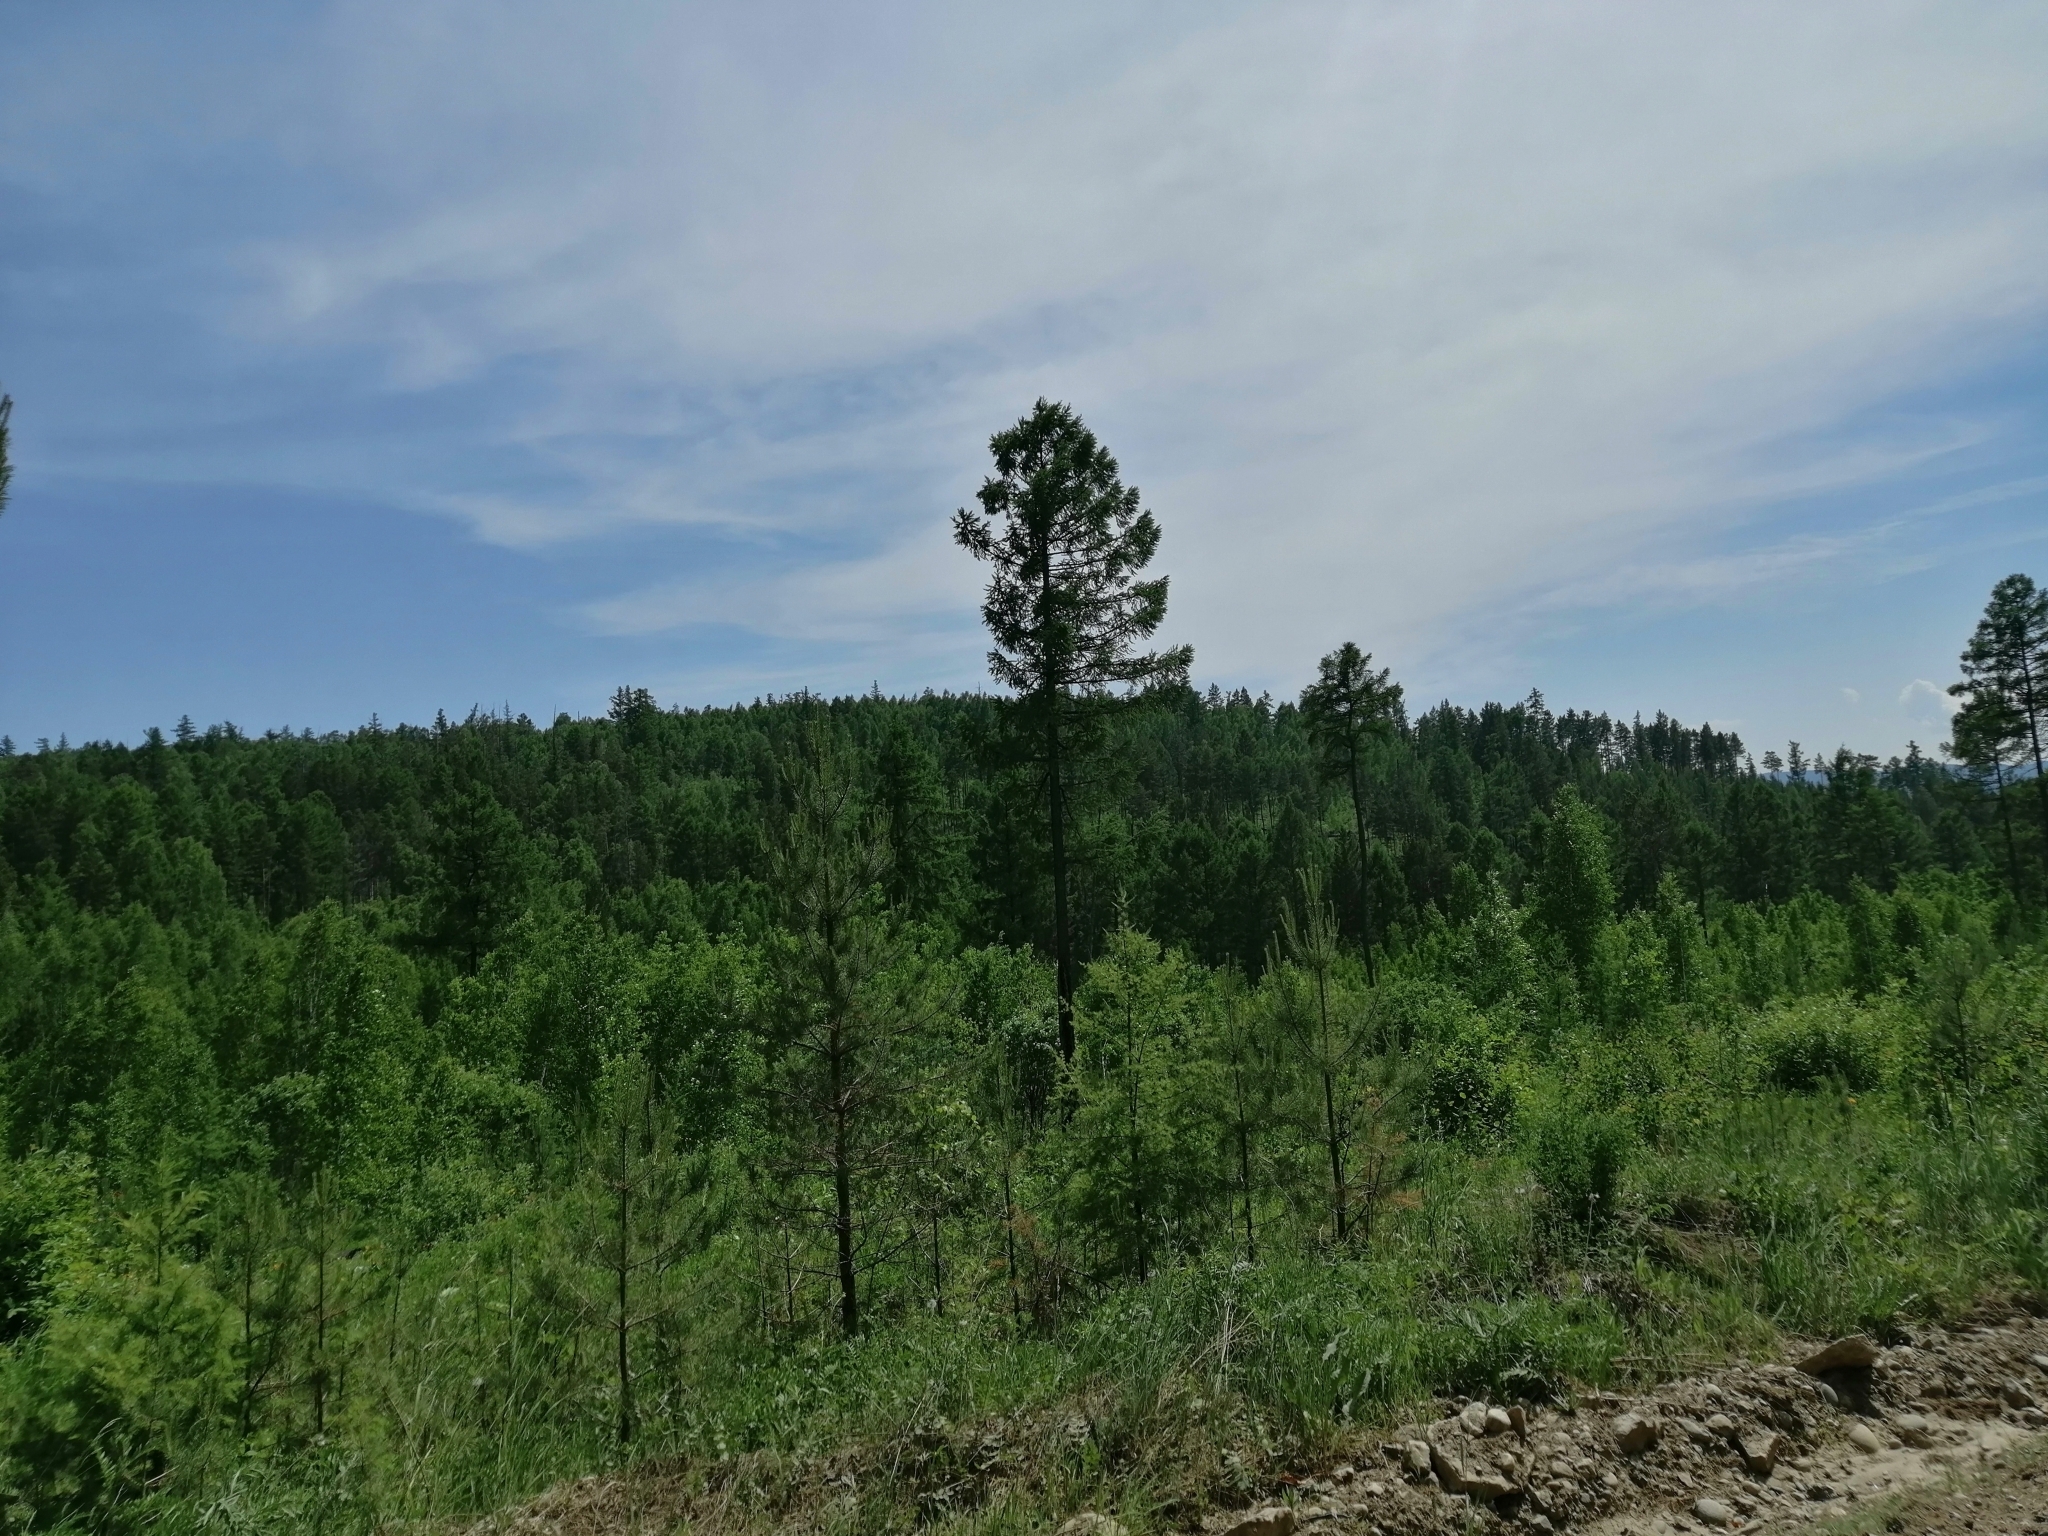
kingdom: Plantae
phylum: Tracheophyta
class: Pinopsida
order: Pinales
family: Pinaceae
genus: Larix
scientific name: Larix sibirica
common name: Siberian larch
